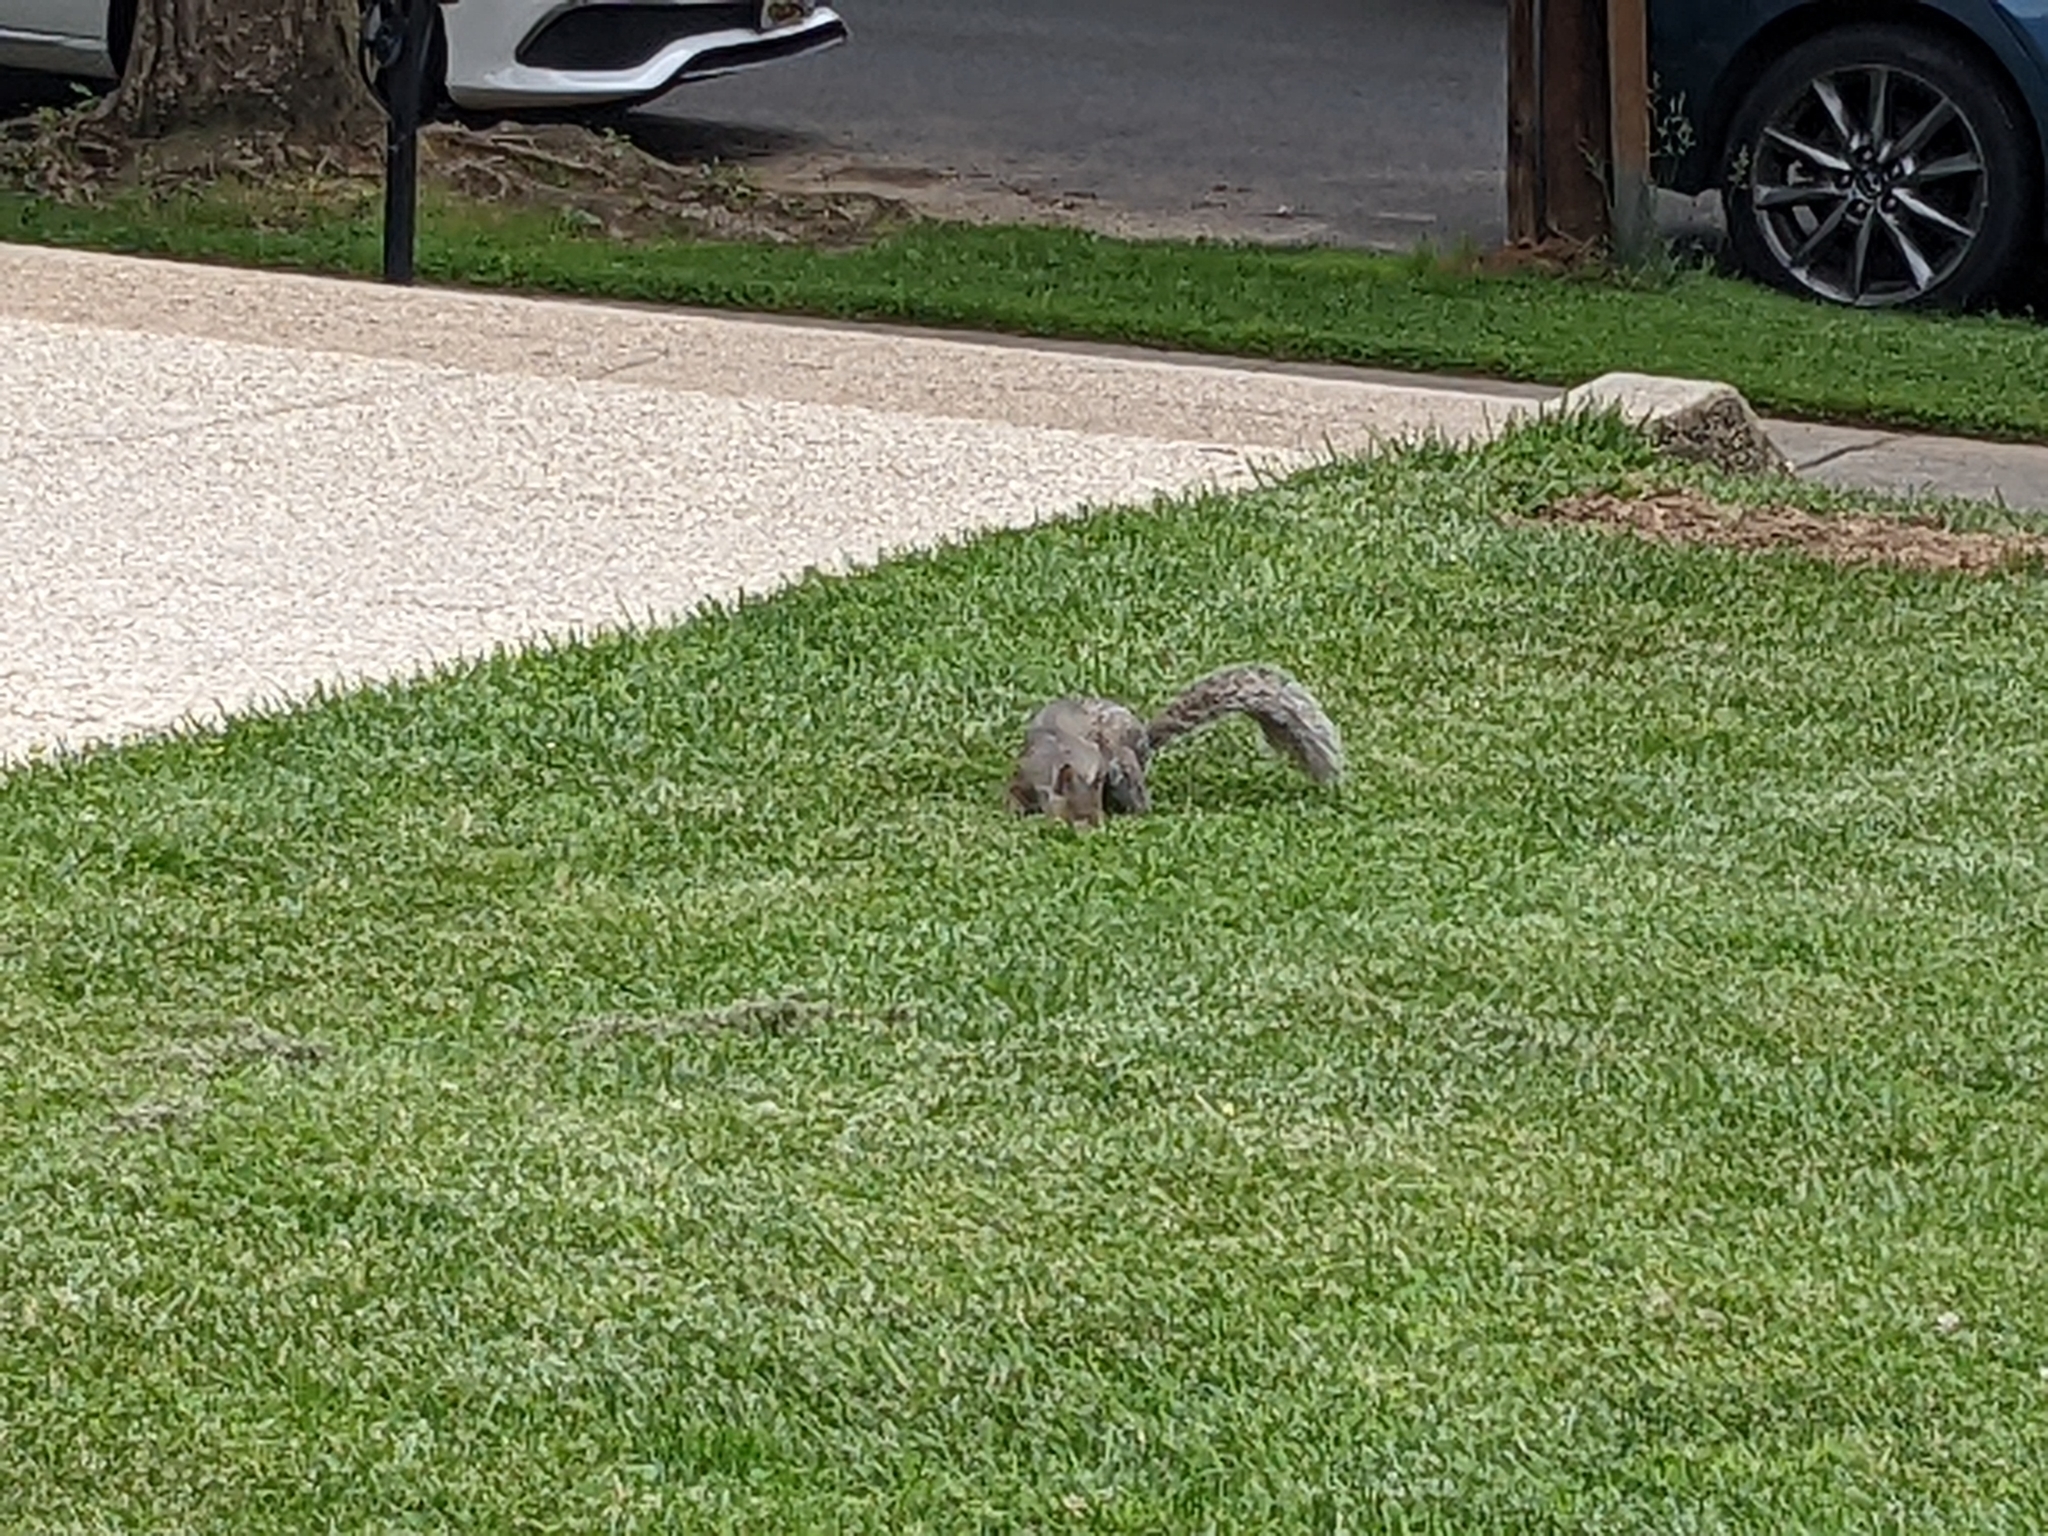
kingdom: Animalia
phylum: Chordata
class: Mammalia
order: Rodentia
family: Sciuridae
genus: Sciurus
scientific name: Sciurus carolinensis
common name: Eastern gray squirrel
